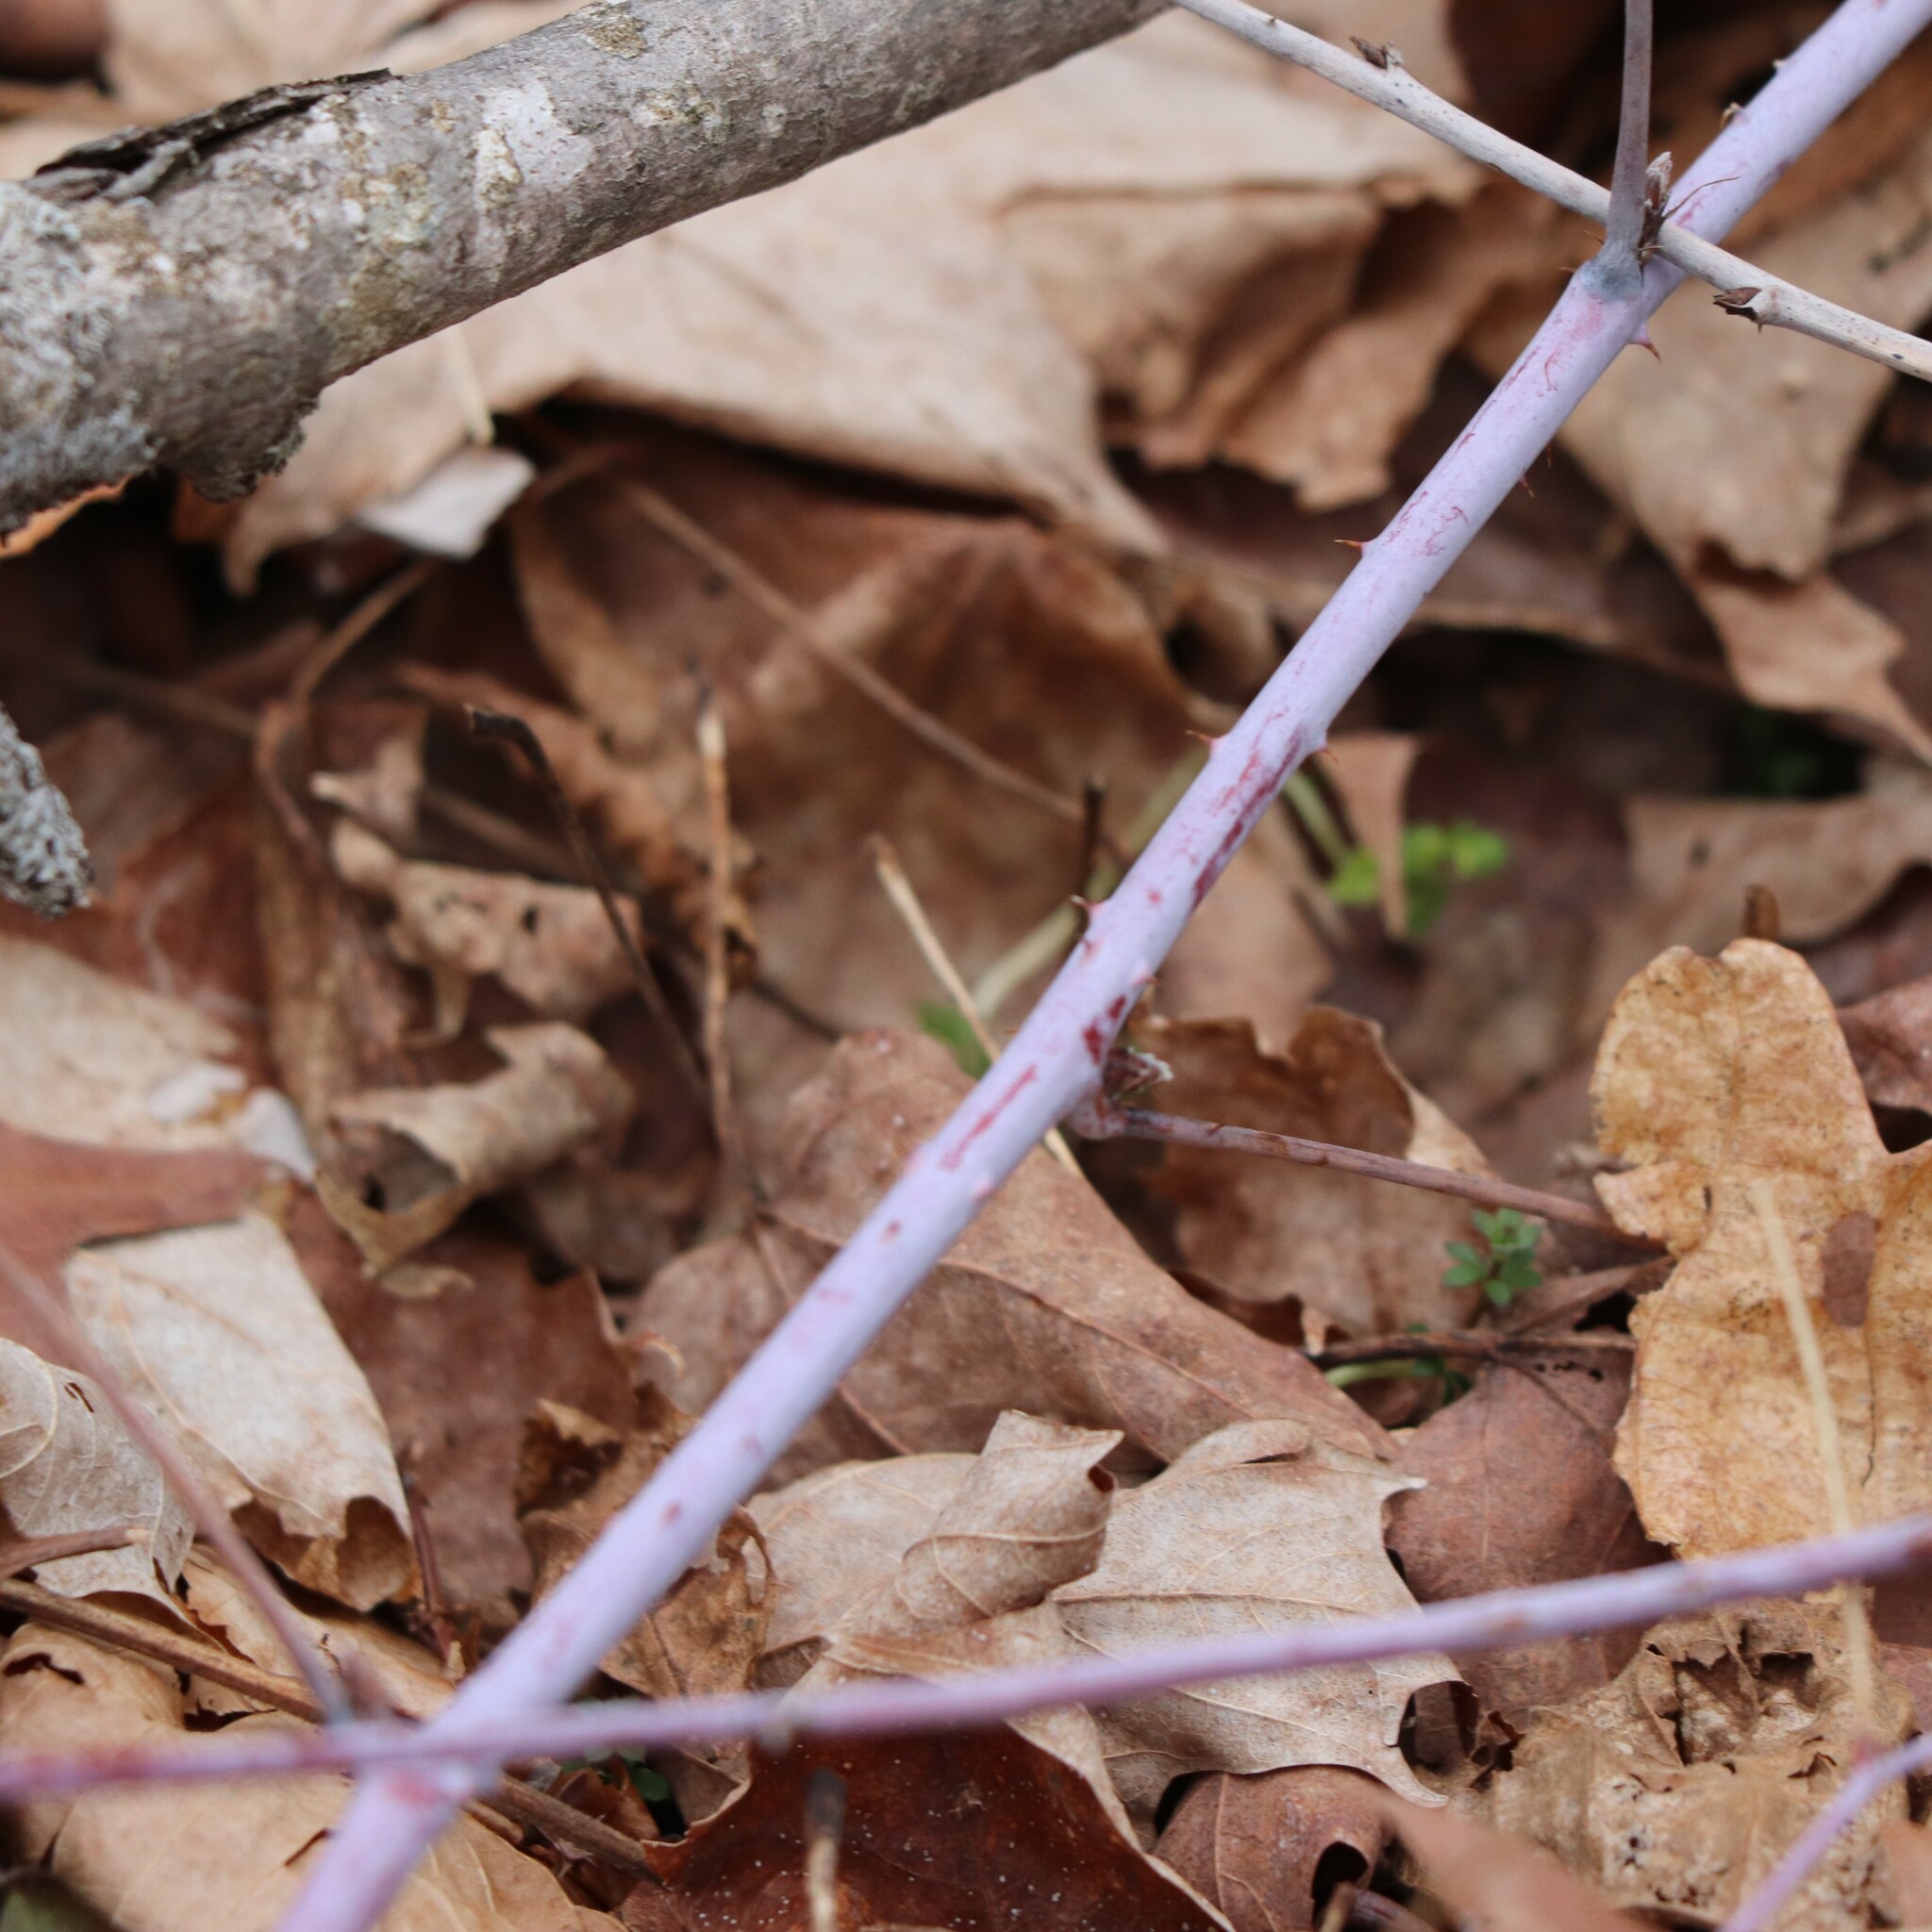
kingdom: Plantae
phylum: Tracheophyta
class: Magnoliopsida
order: Rosales
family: Rosaceae
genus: Rubus
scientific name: Rubus occidentalis
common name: Black raspberry
